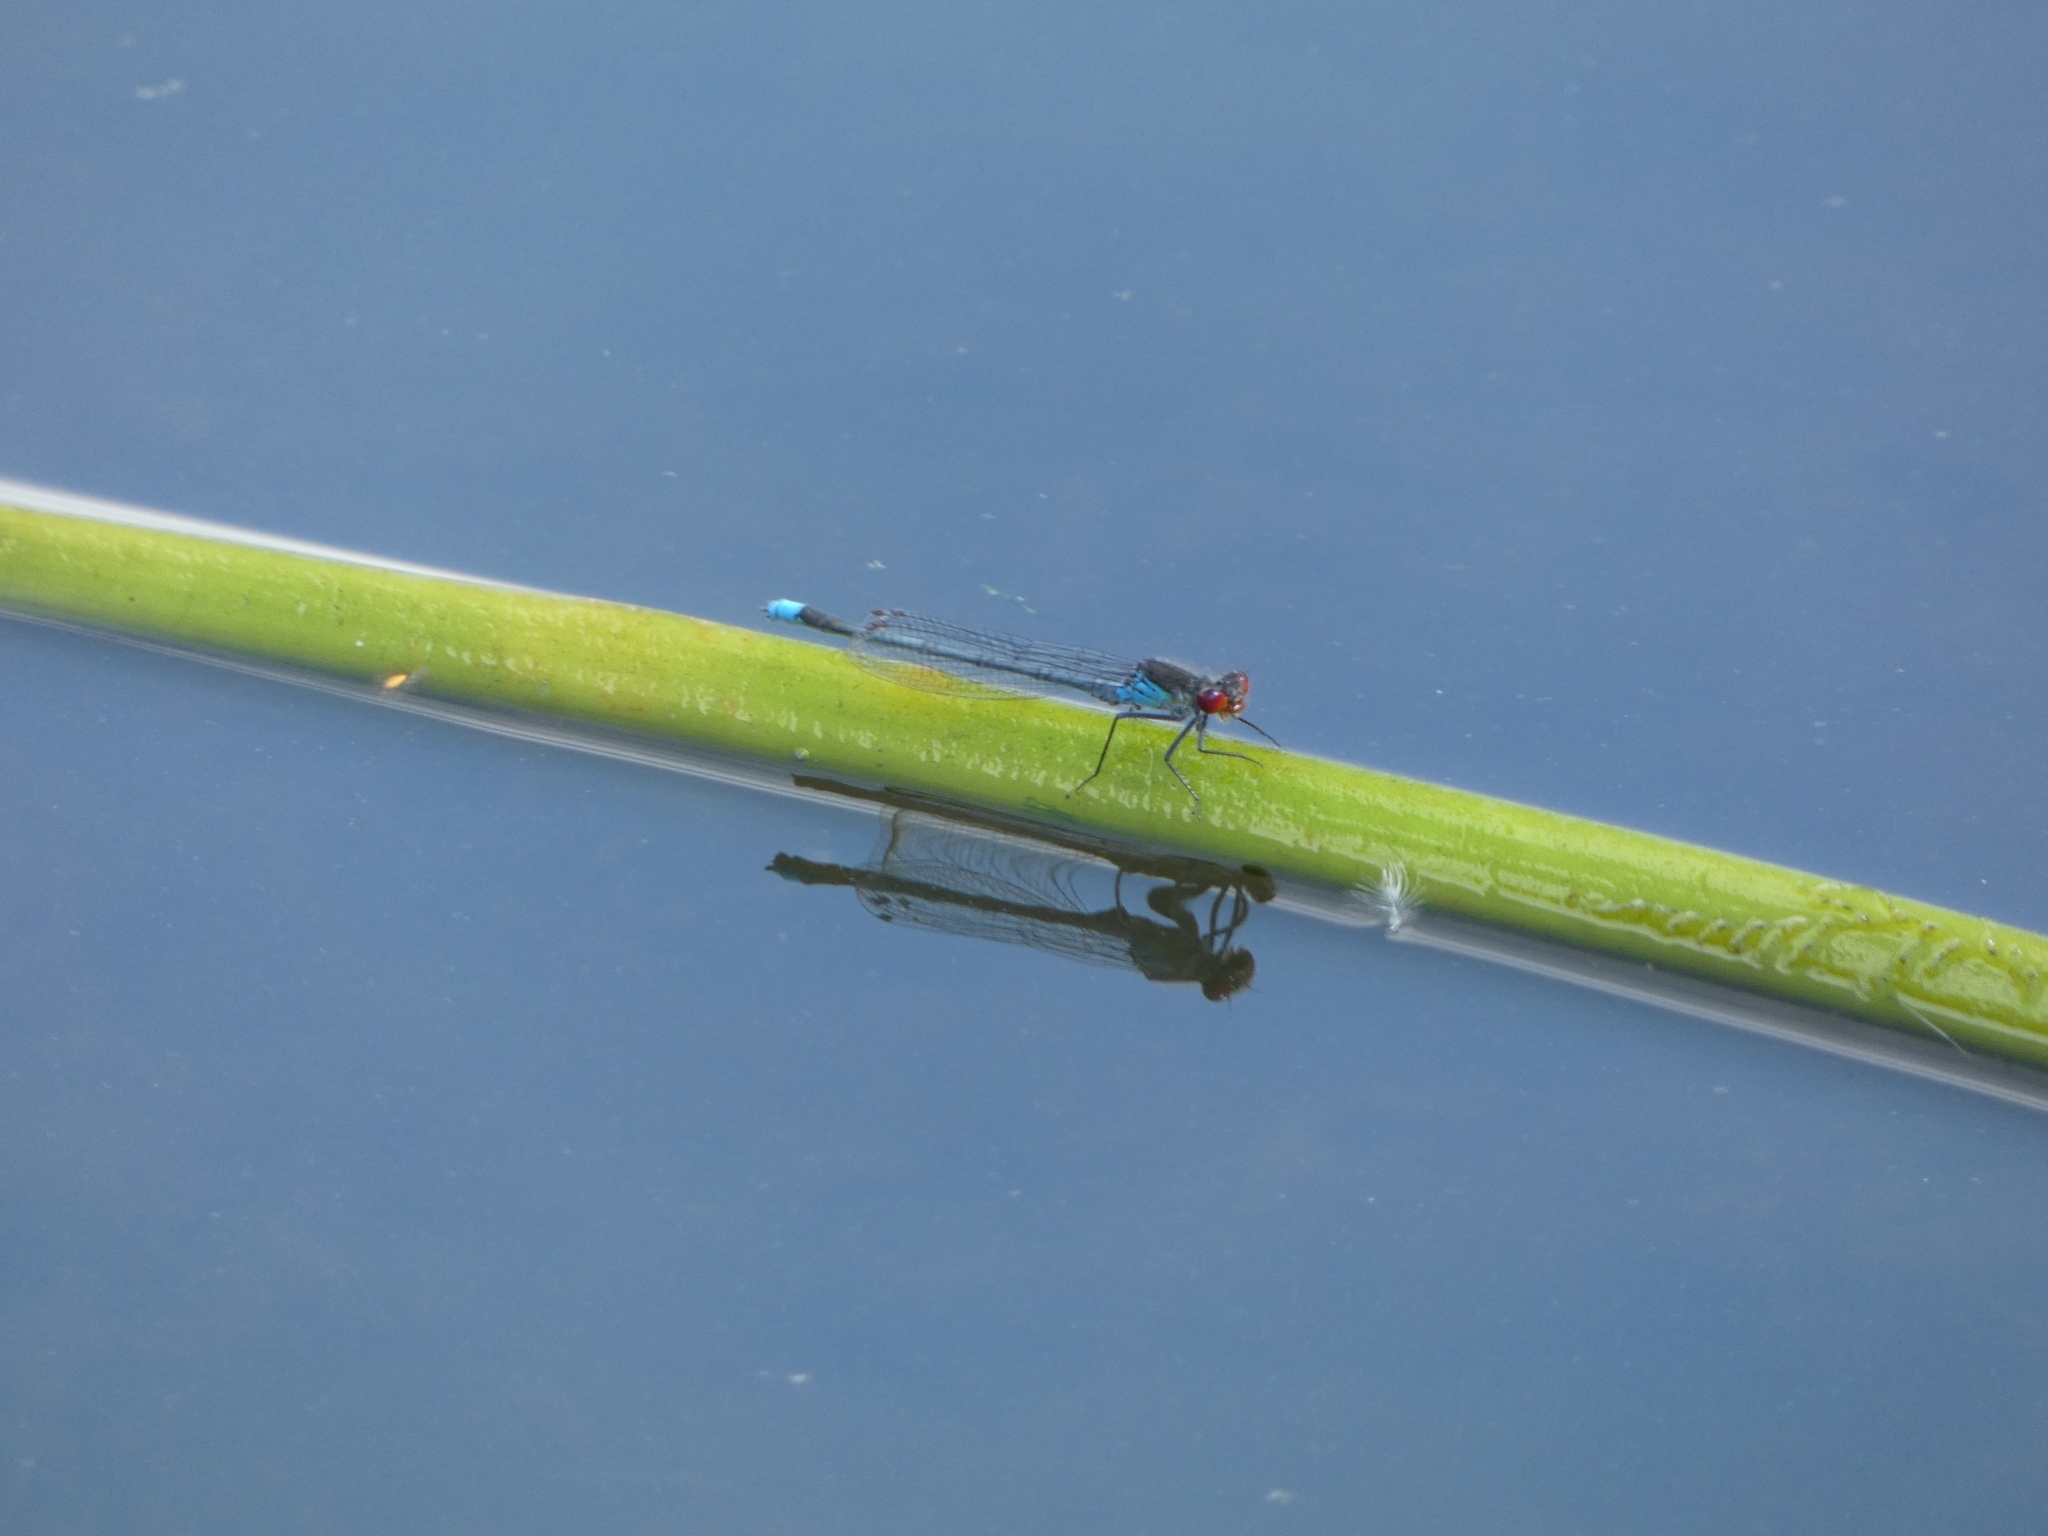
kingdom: Animalia
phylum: Arthropoda
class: Insecta
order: Odonata
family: Coenagrionidae
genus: Erythromma
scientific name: Erythromma najas
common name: Red-eyed damselfly
